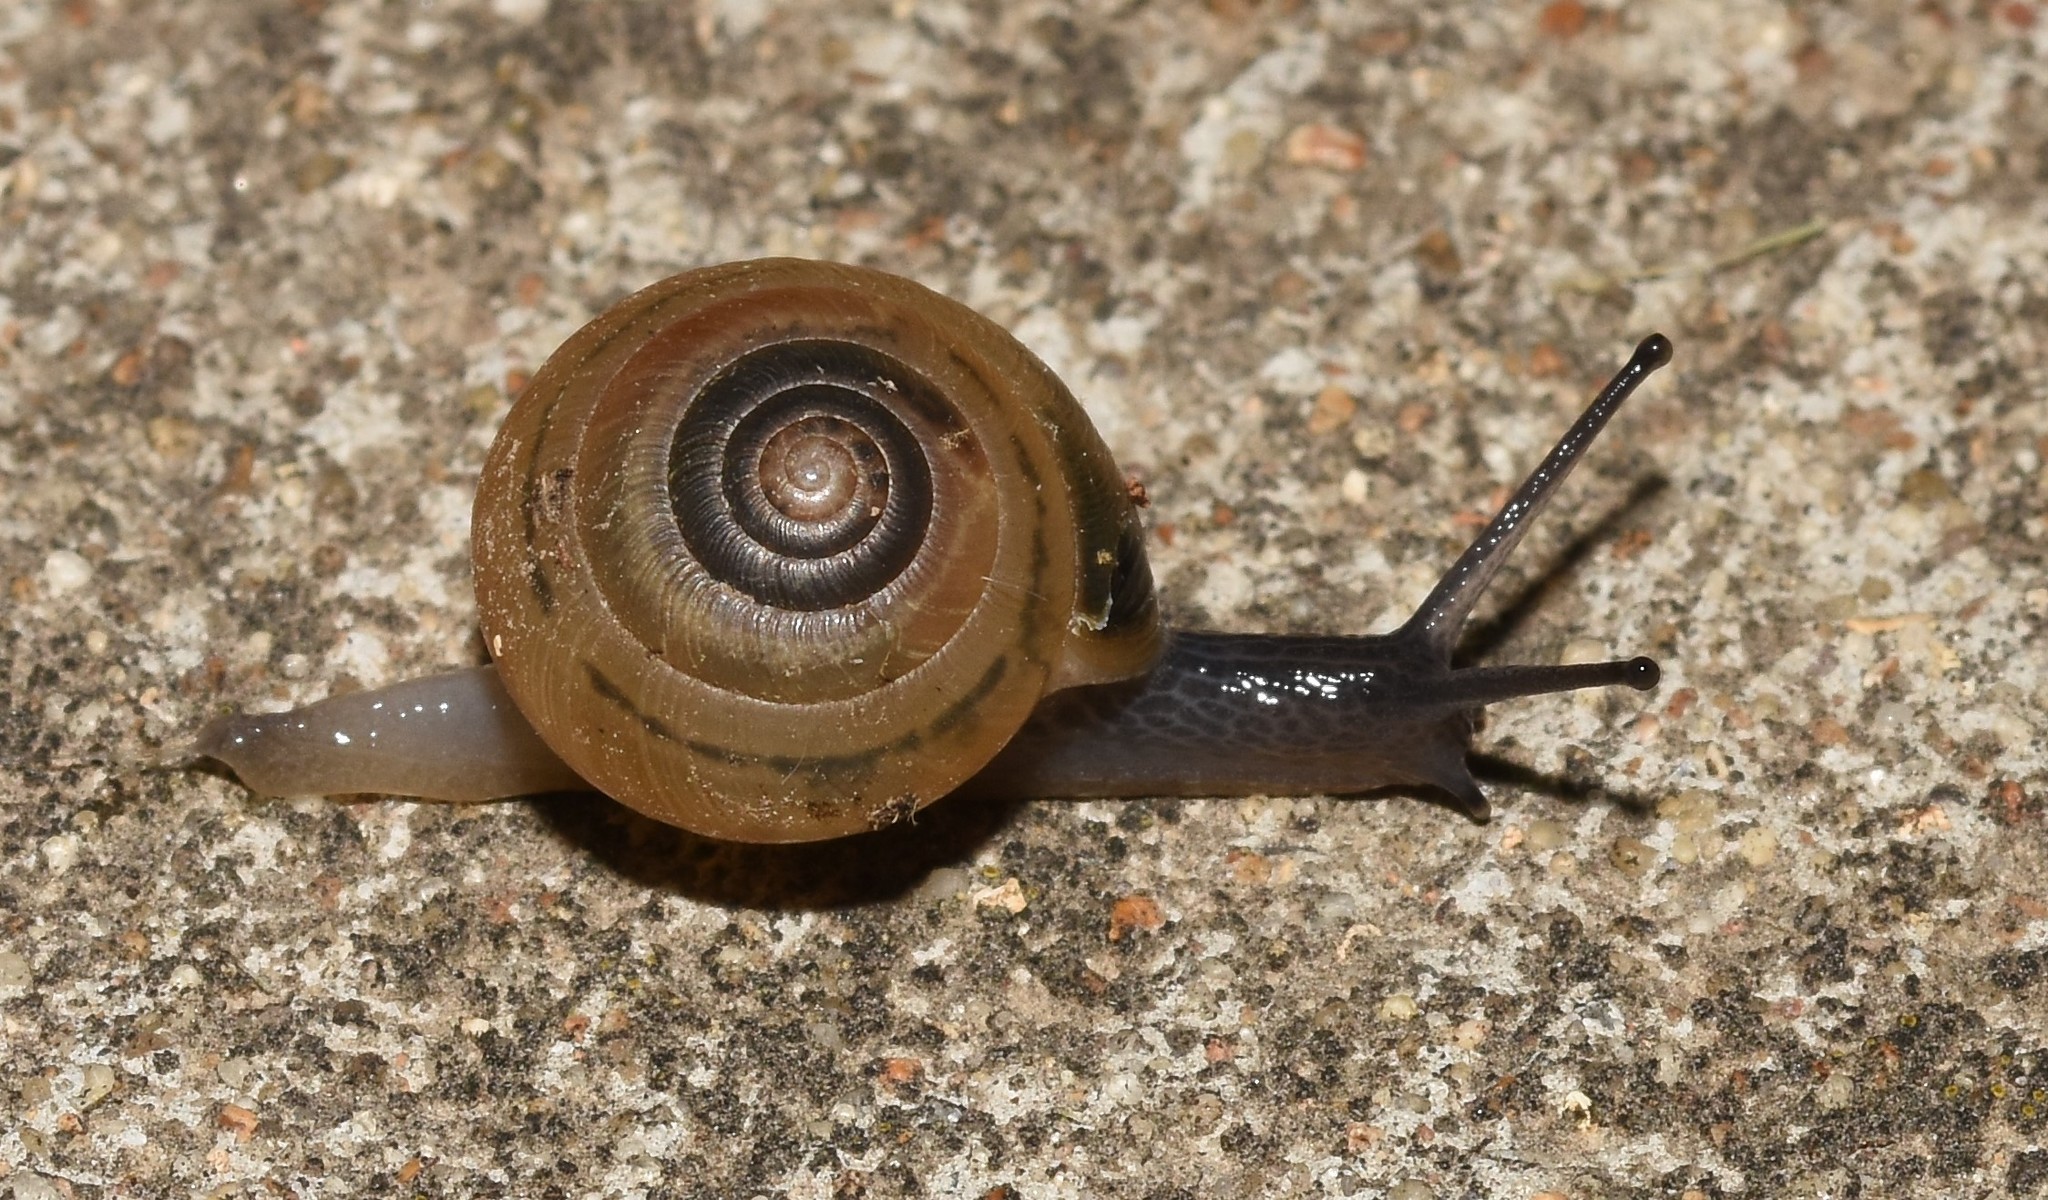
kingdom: Animalia
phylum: Mollusca
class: Gastropoda
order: Stylommatophora
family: Gastrodontidae
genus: Ventridens
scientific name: Ventridens ligera
